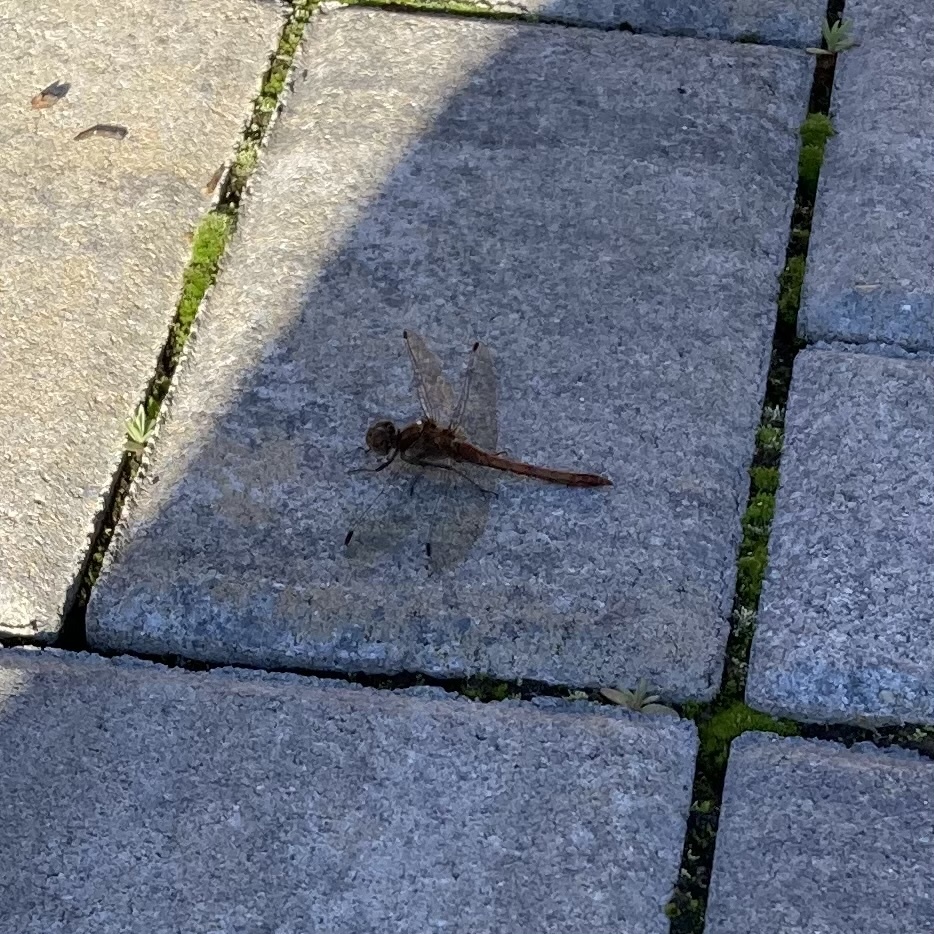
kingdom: Animalia
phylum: Arthropoda
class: Insecta
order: Odonata
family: Libellulidae
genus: Sympetrum
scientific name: Sympetrum striolatum
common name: Common darter
